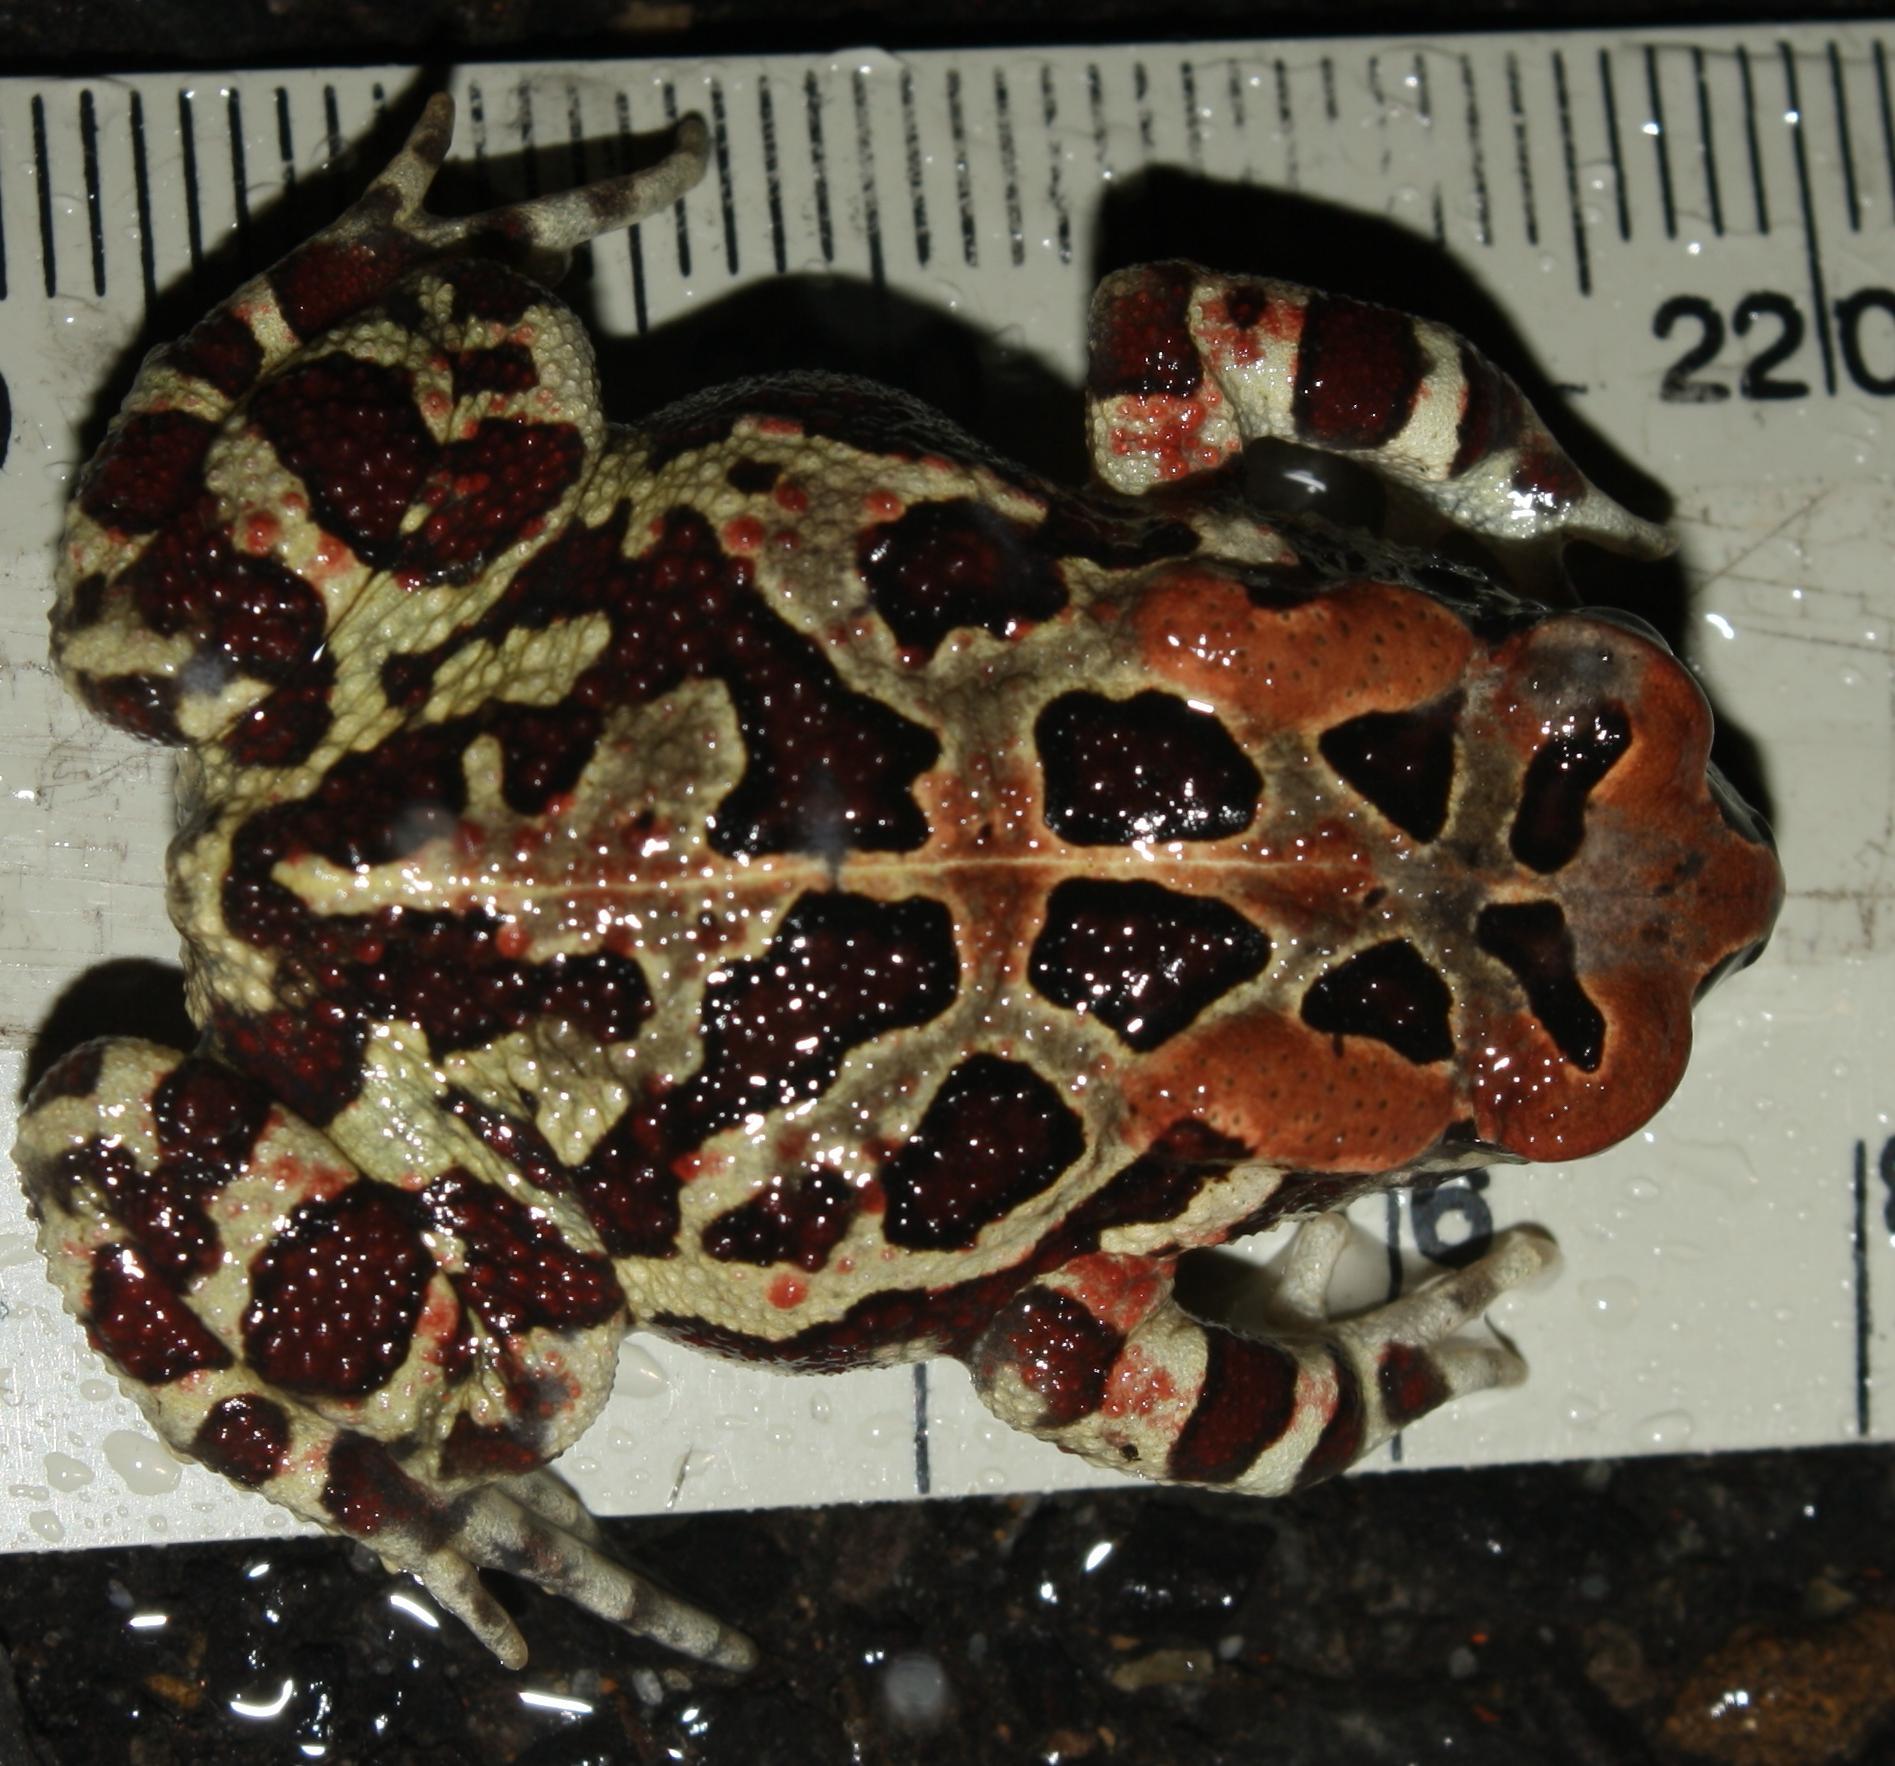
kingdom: Animalia
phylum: Chordata
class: Amphibia
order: Anura
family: Bufonidae
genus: Sclerophrys
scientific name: Sclerophrys pantherina
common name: Panther toad
